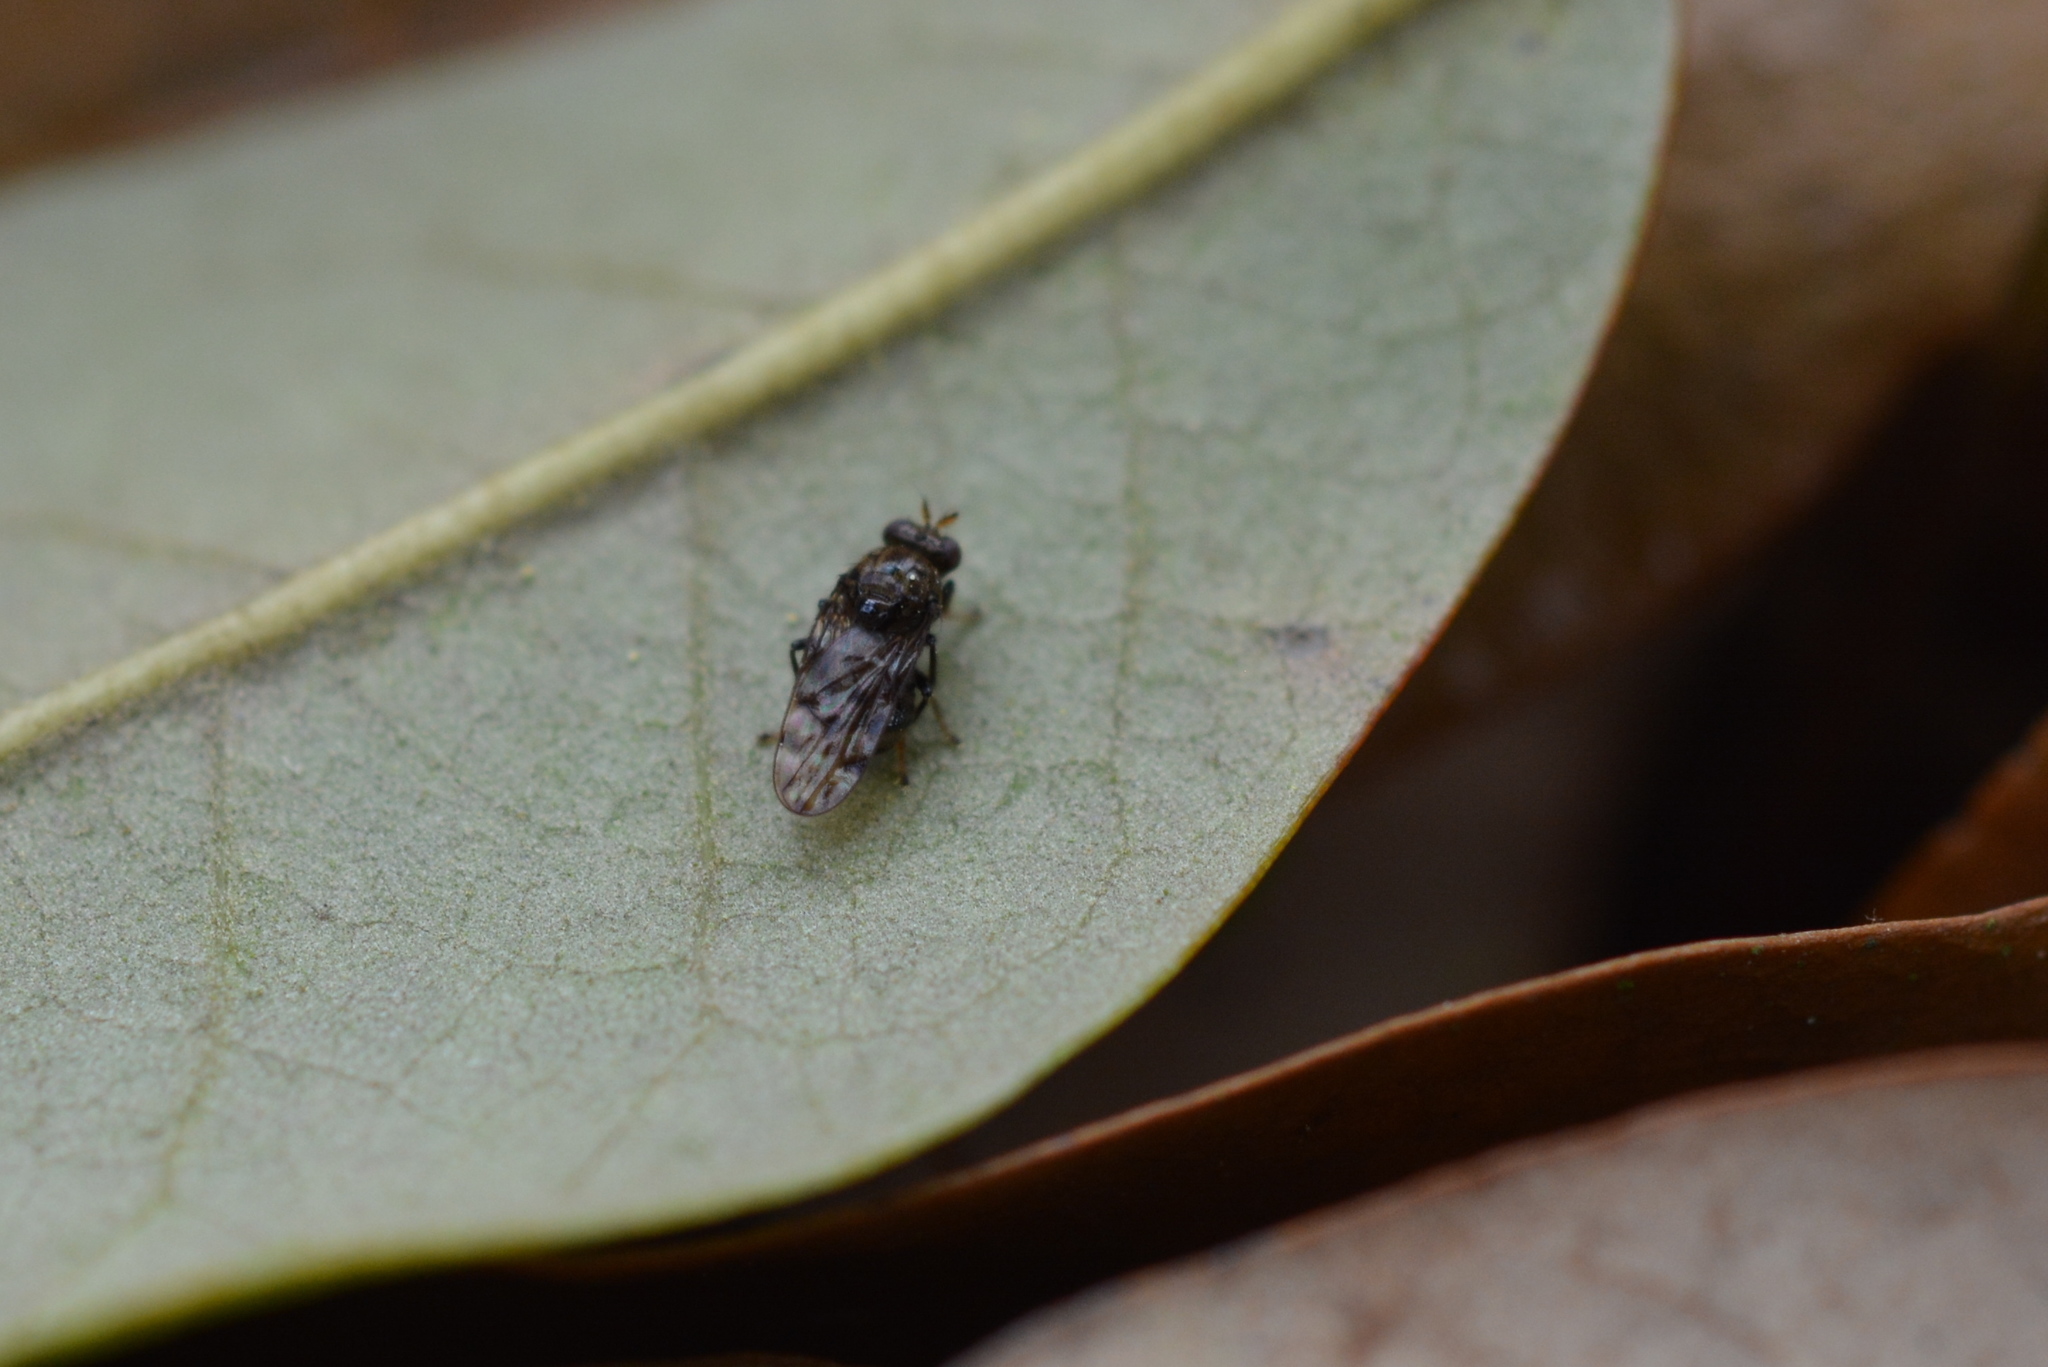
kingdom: Animalia
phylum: Arthropoda
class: Insecta
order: Diptera
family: Ephydridae
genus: Gastrops
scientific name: Gastrops nebulosus
